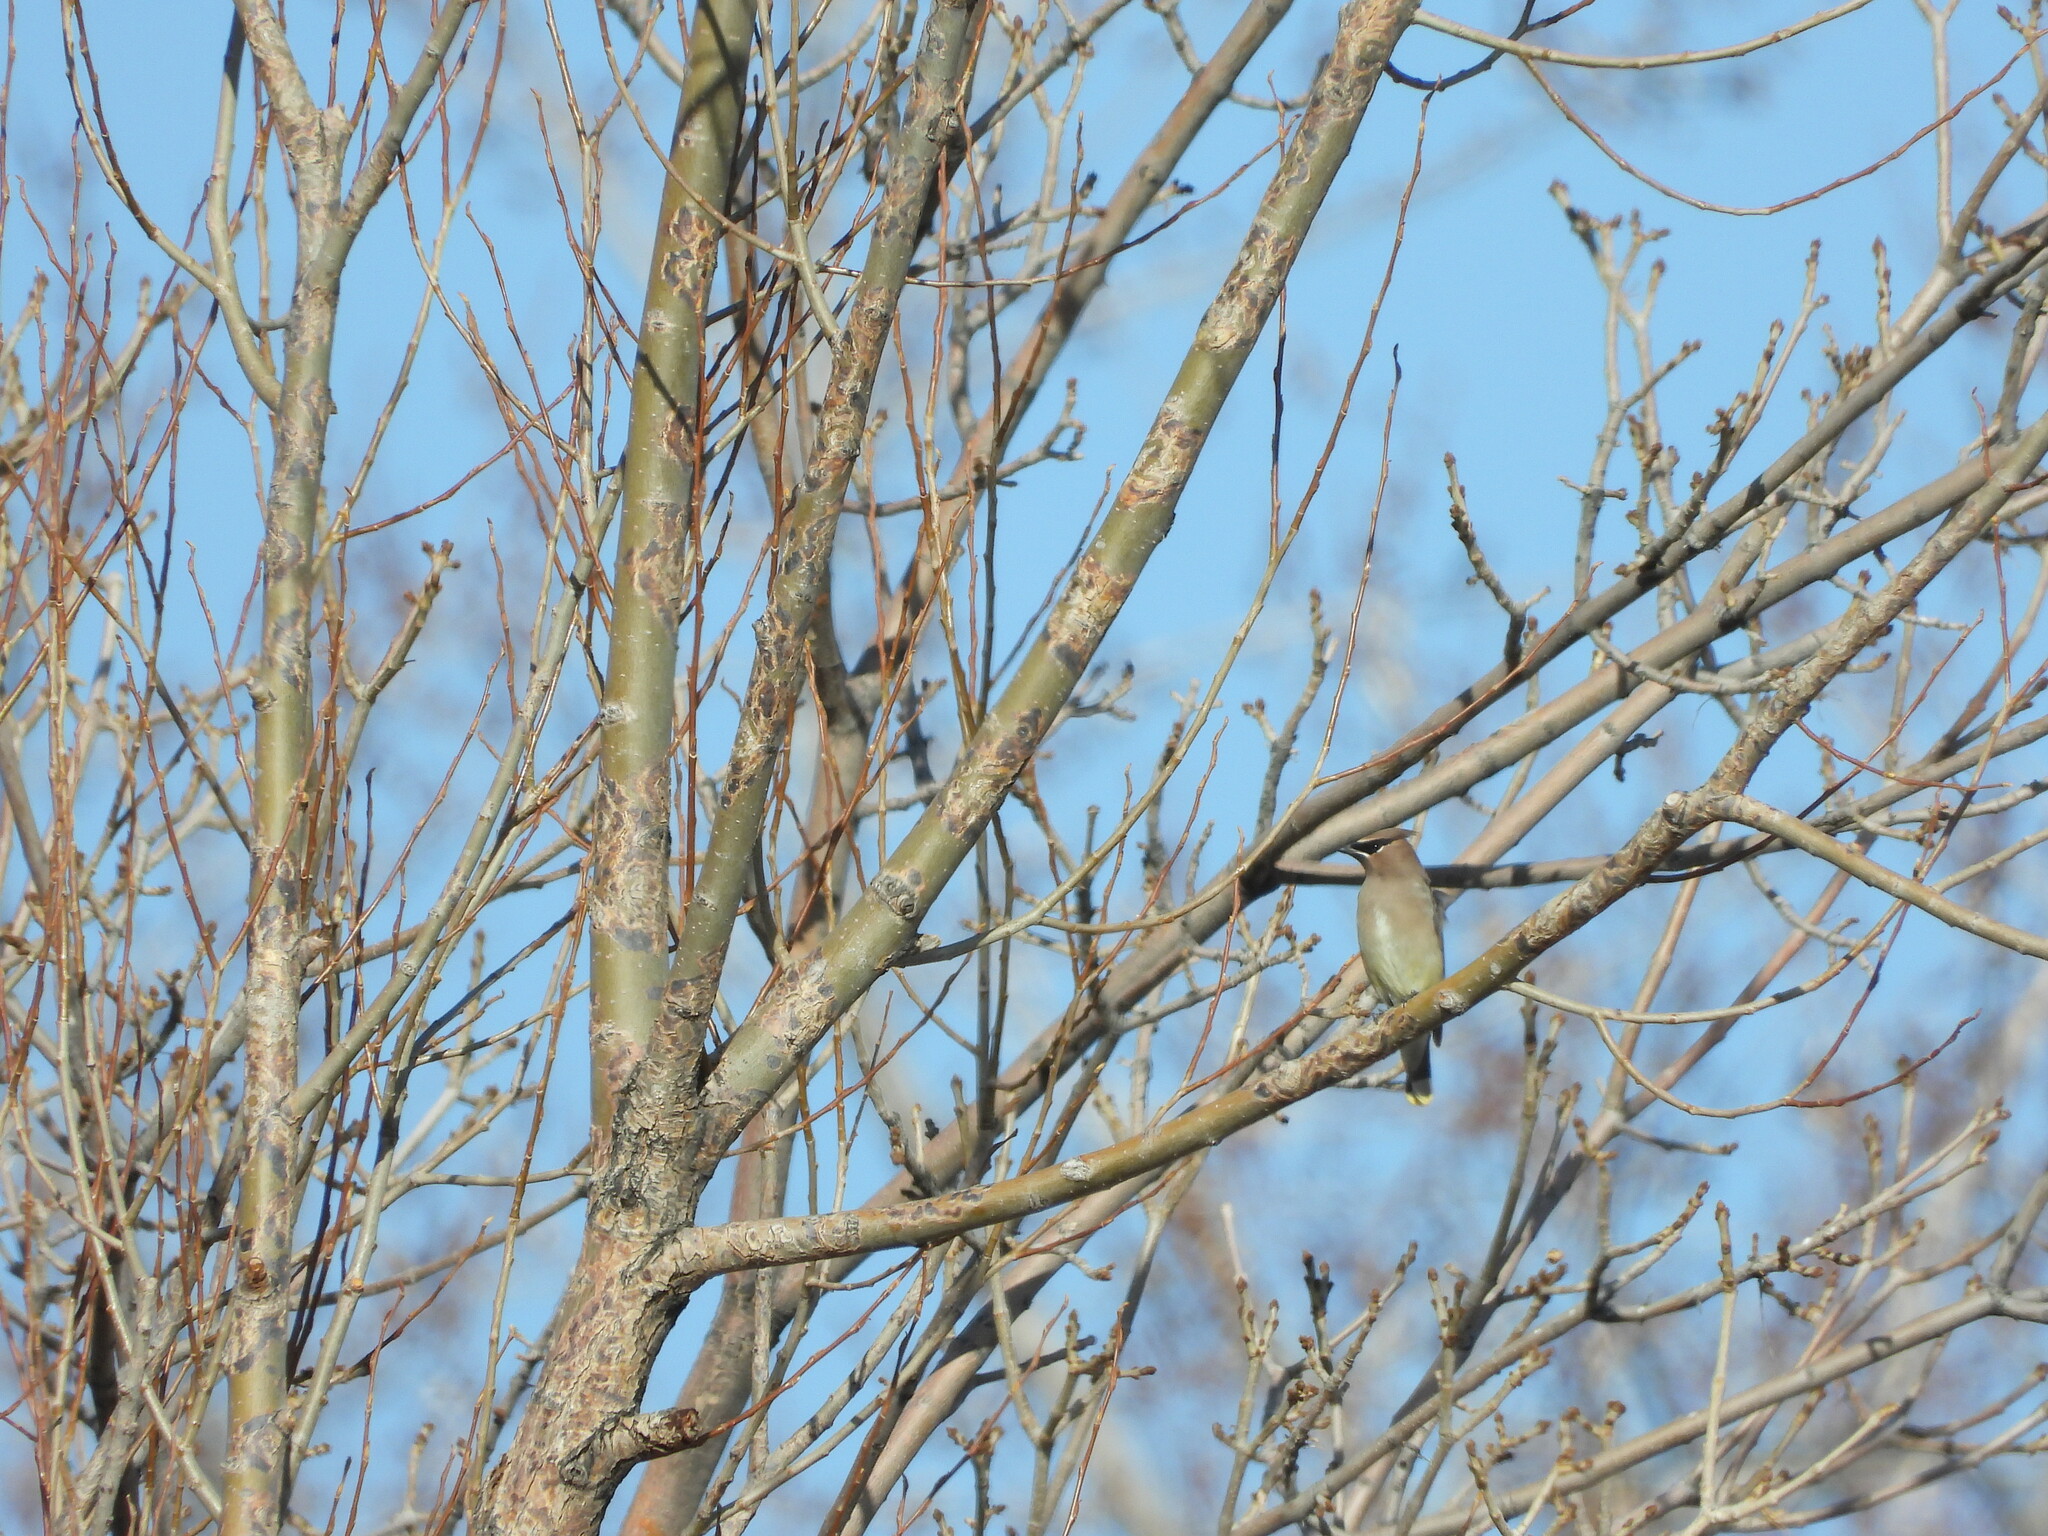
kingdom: Animalia
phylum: Chordata
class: Aves
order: Passeriformes
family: Bombycillidae
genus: Bombycilla
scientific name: Bombycilla cedrorum
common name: Cedar waxwing
